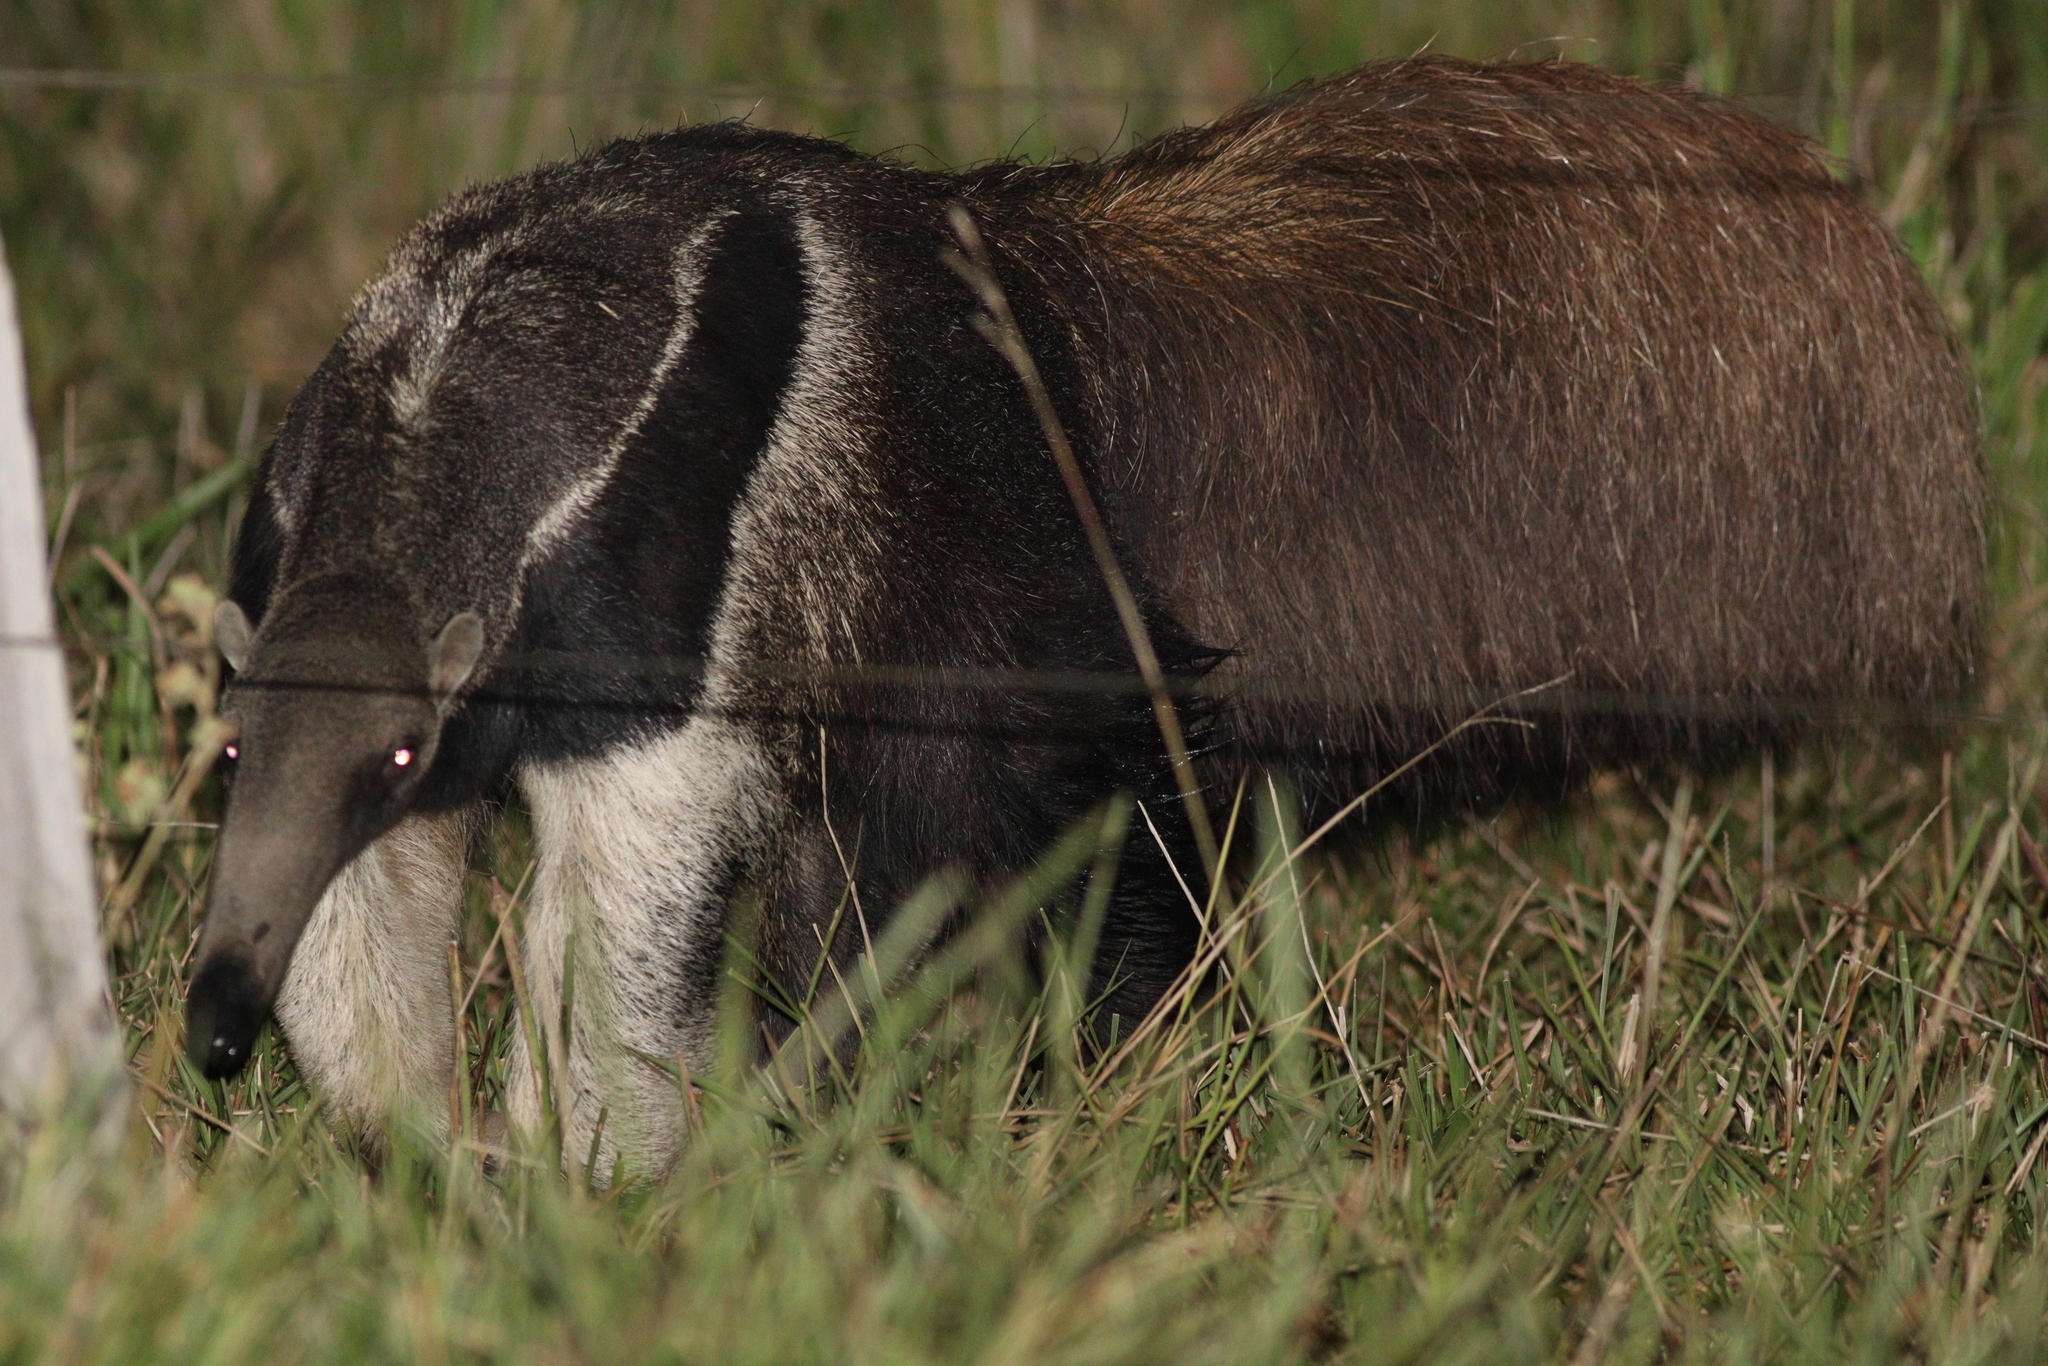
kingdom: Animalia
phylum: Chordata
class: Mammalia
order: Pilosa
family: Myrmecophagidae
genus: Myrmecophaga
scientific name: Myrmecophaga tridactyla
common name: Giant anteater
